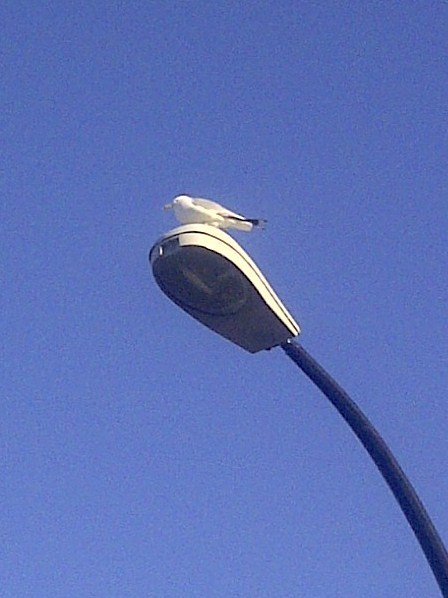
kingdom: Animalia
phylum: Chordata
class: Aves
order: Charadriiformes
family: Laridae
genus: Larus
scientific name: Larus delawarensis
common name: Ring-billed gull
